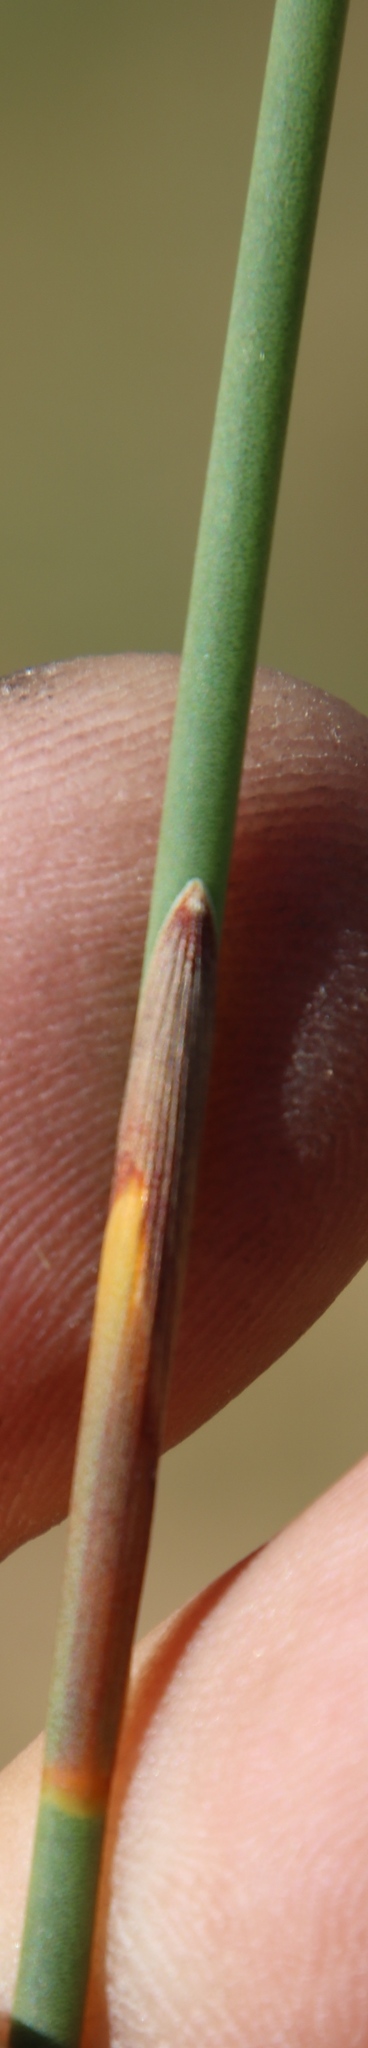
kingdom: Plantae
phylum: Tracheophyta
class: Liliopsida
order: Poales
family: Restionaceae
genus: Cannomois
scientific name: Cannomois parviflora
